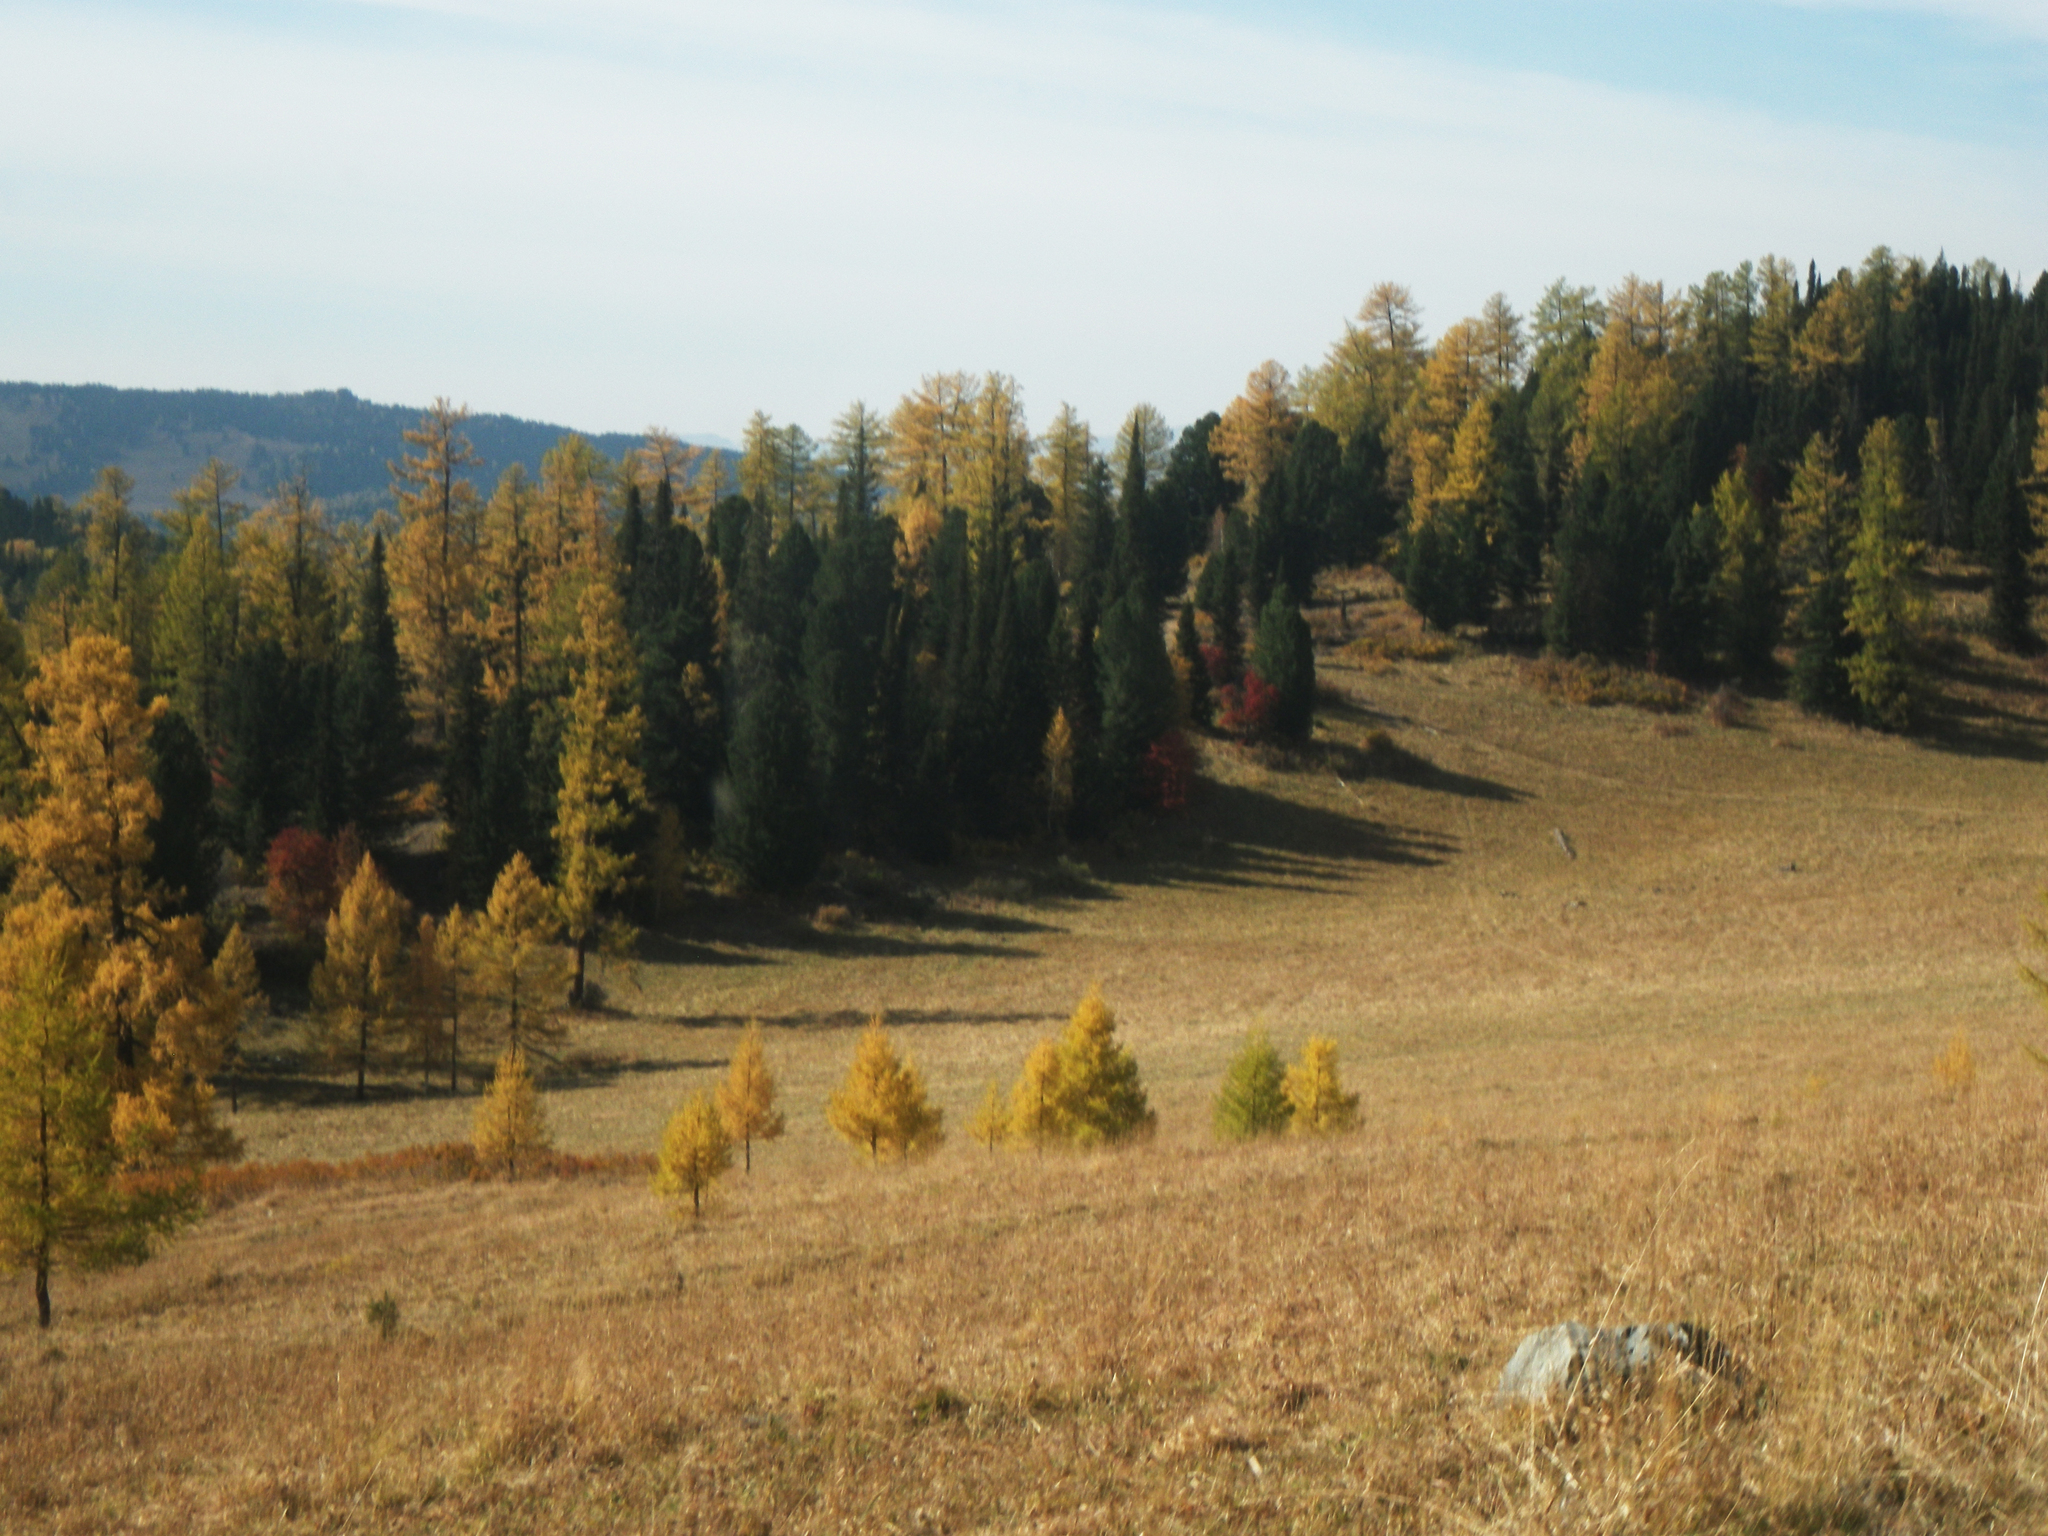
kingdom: Plantae
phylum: Tracheophyta
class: Pinopsida
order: Pinales
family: Pinaceae
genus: Larix
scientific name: Larix sibirica
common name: Siberian larch
